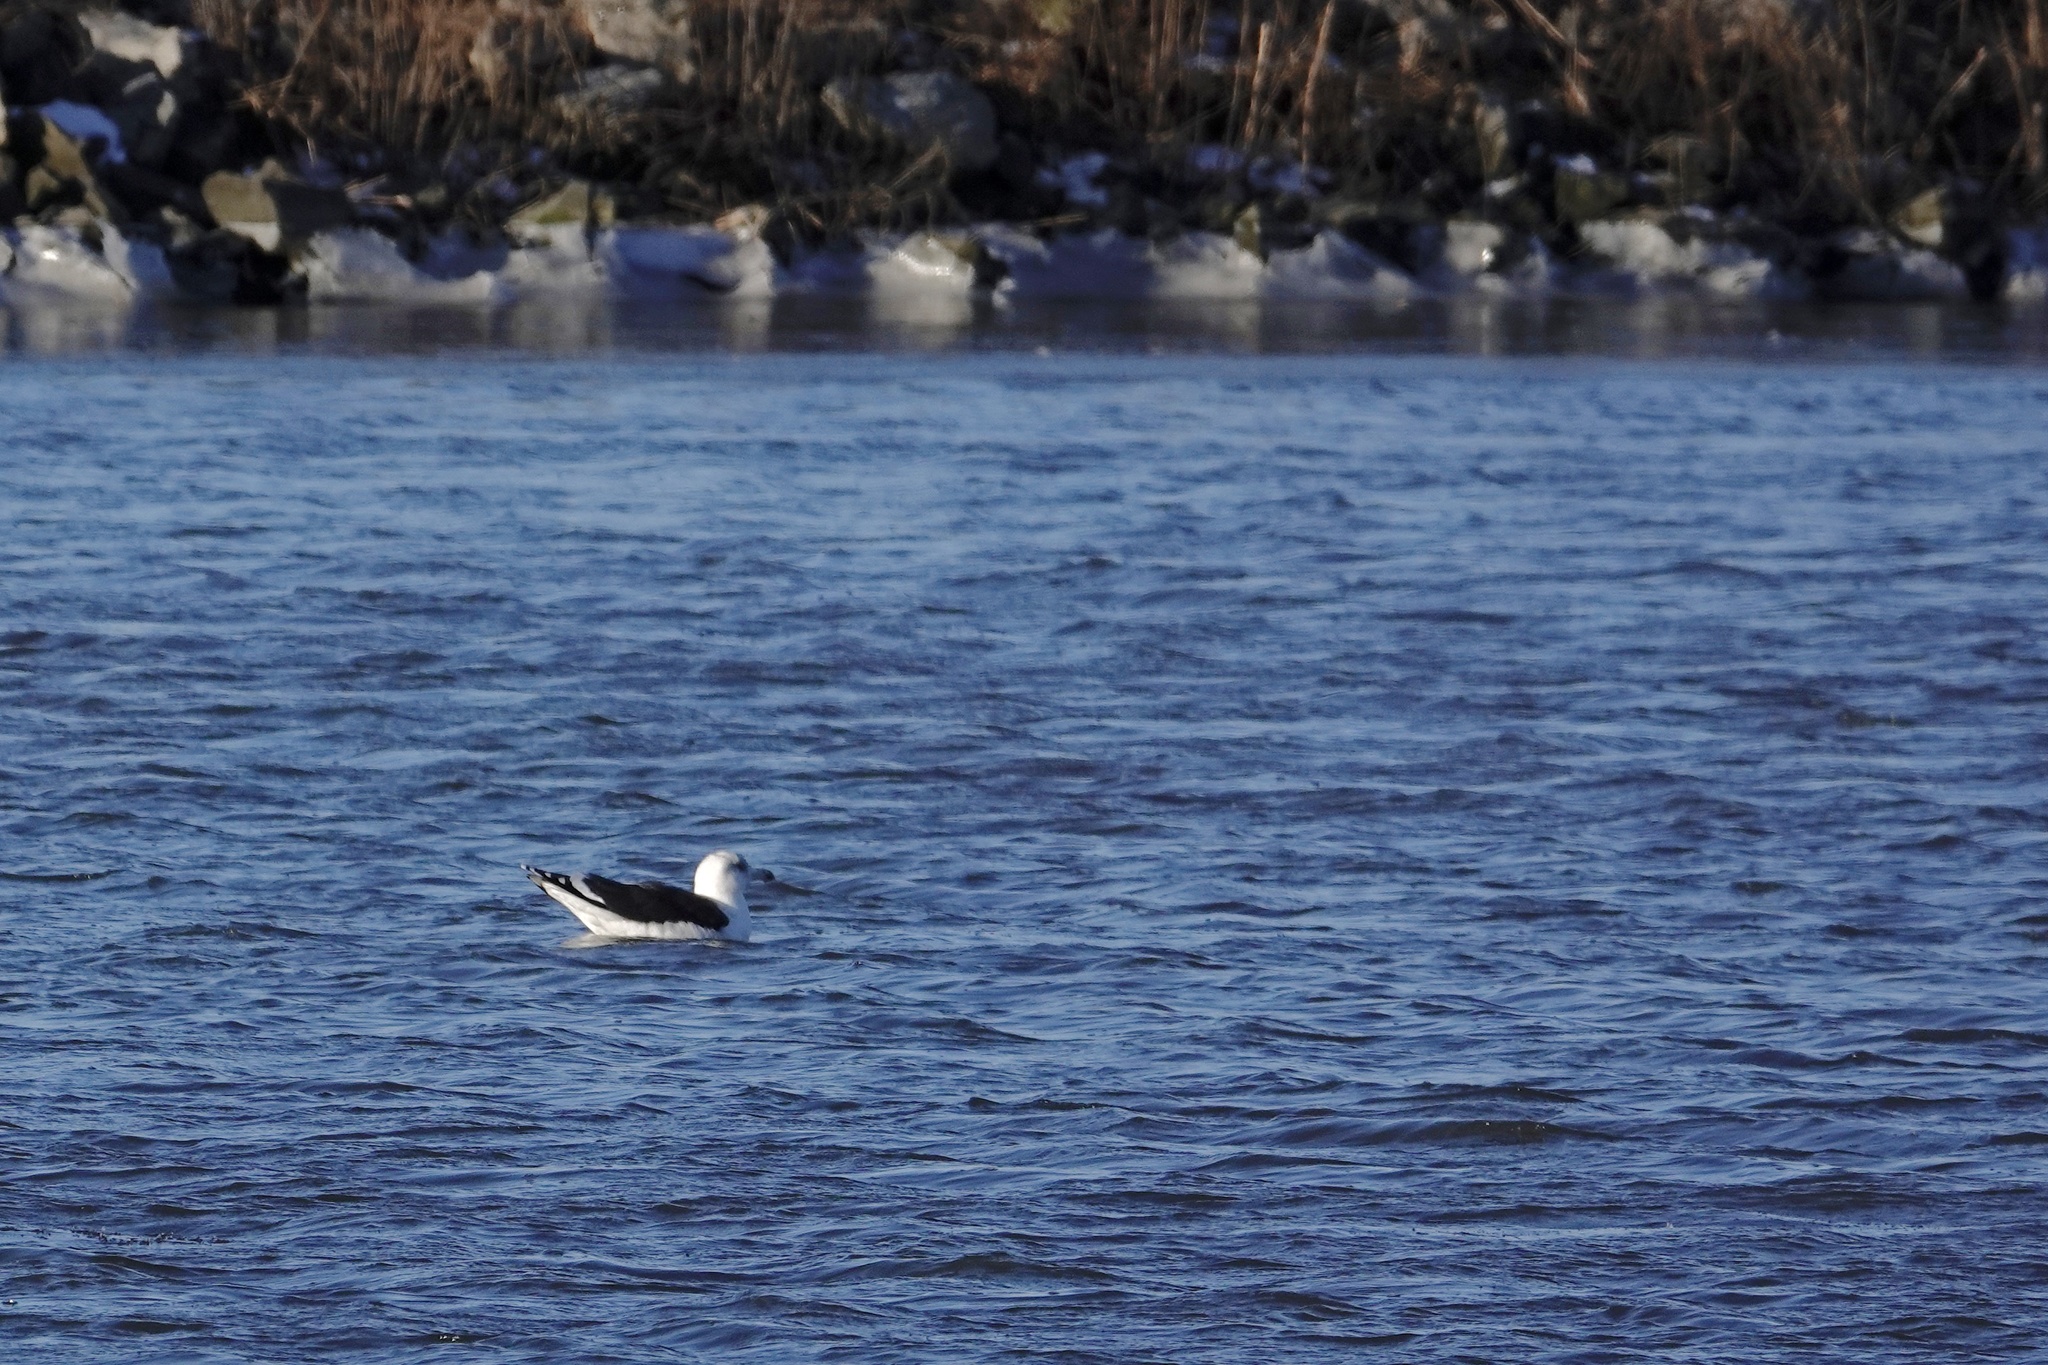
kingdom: Animalia
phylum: Chordata
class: Aves
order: Charadriiformes
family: Laridae
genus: Larus
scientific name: Larus marinus
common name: Great black-backed gull
